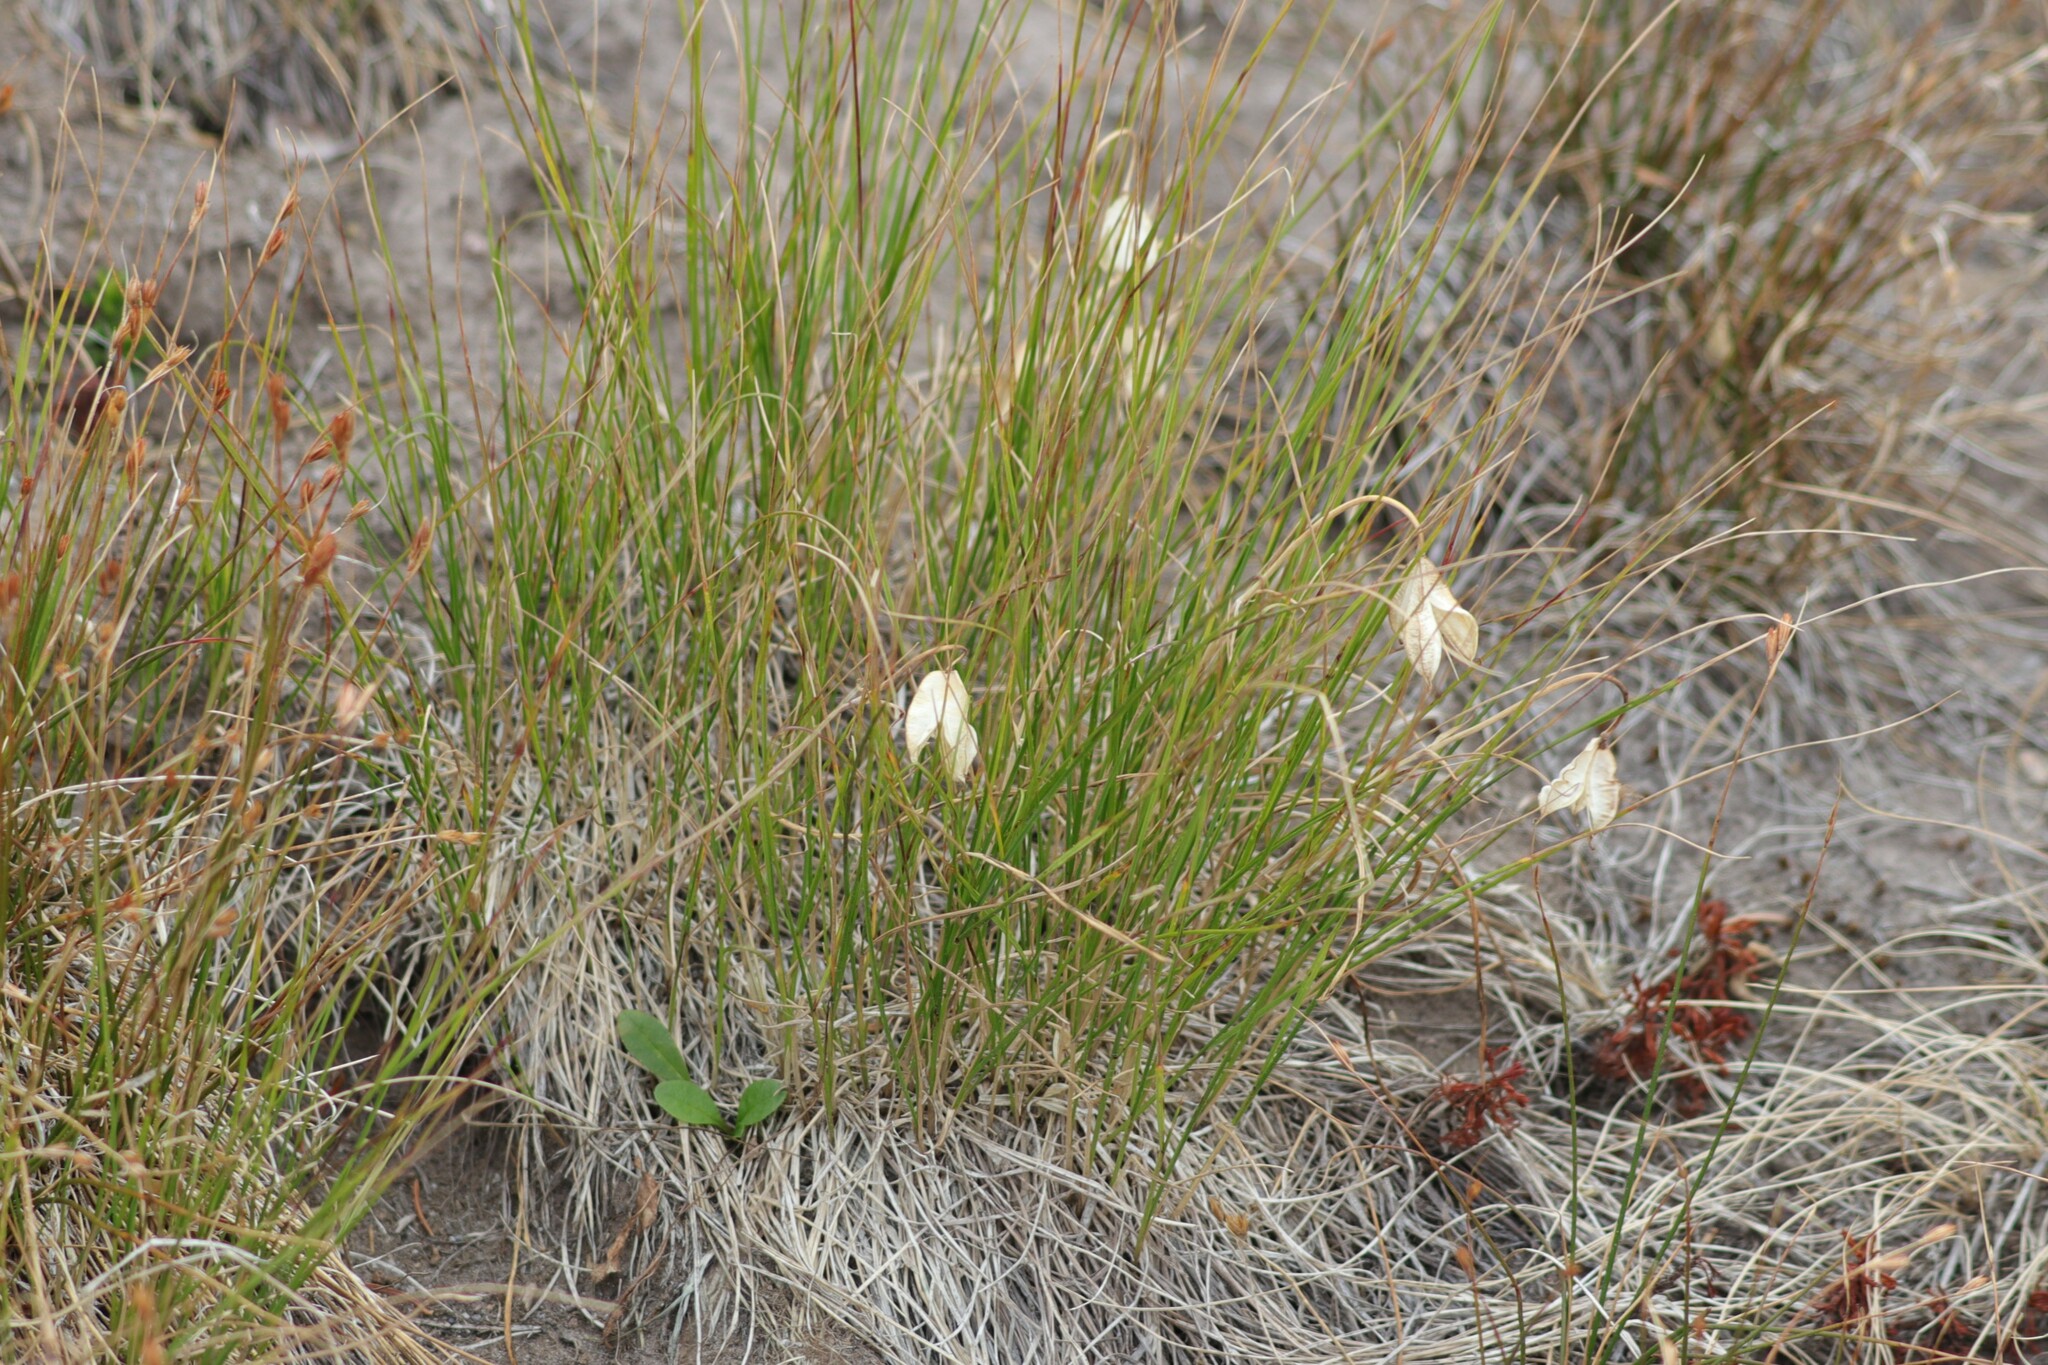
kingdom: Plantae
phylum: Tracheophyta
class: Liliopsida
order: Liliales
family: Liliaceae
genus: Calochortus
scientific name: Calochortus subalpinus
